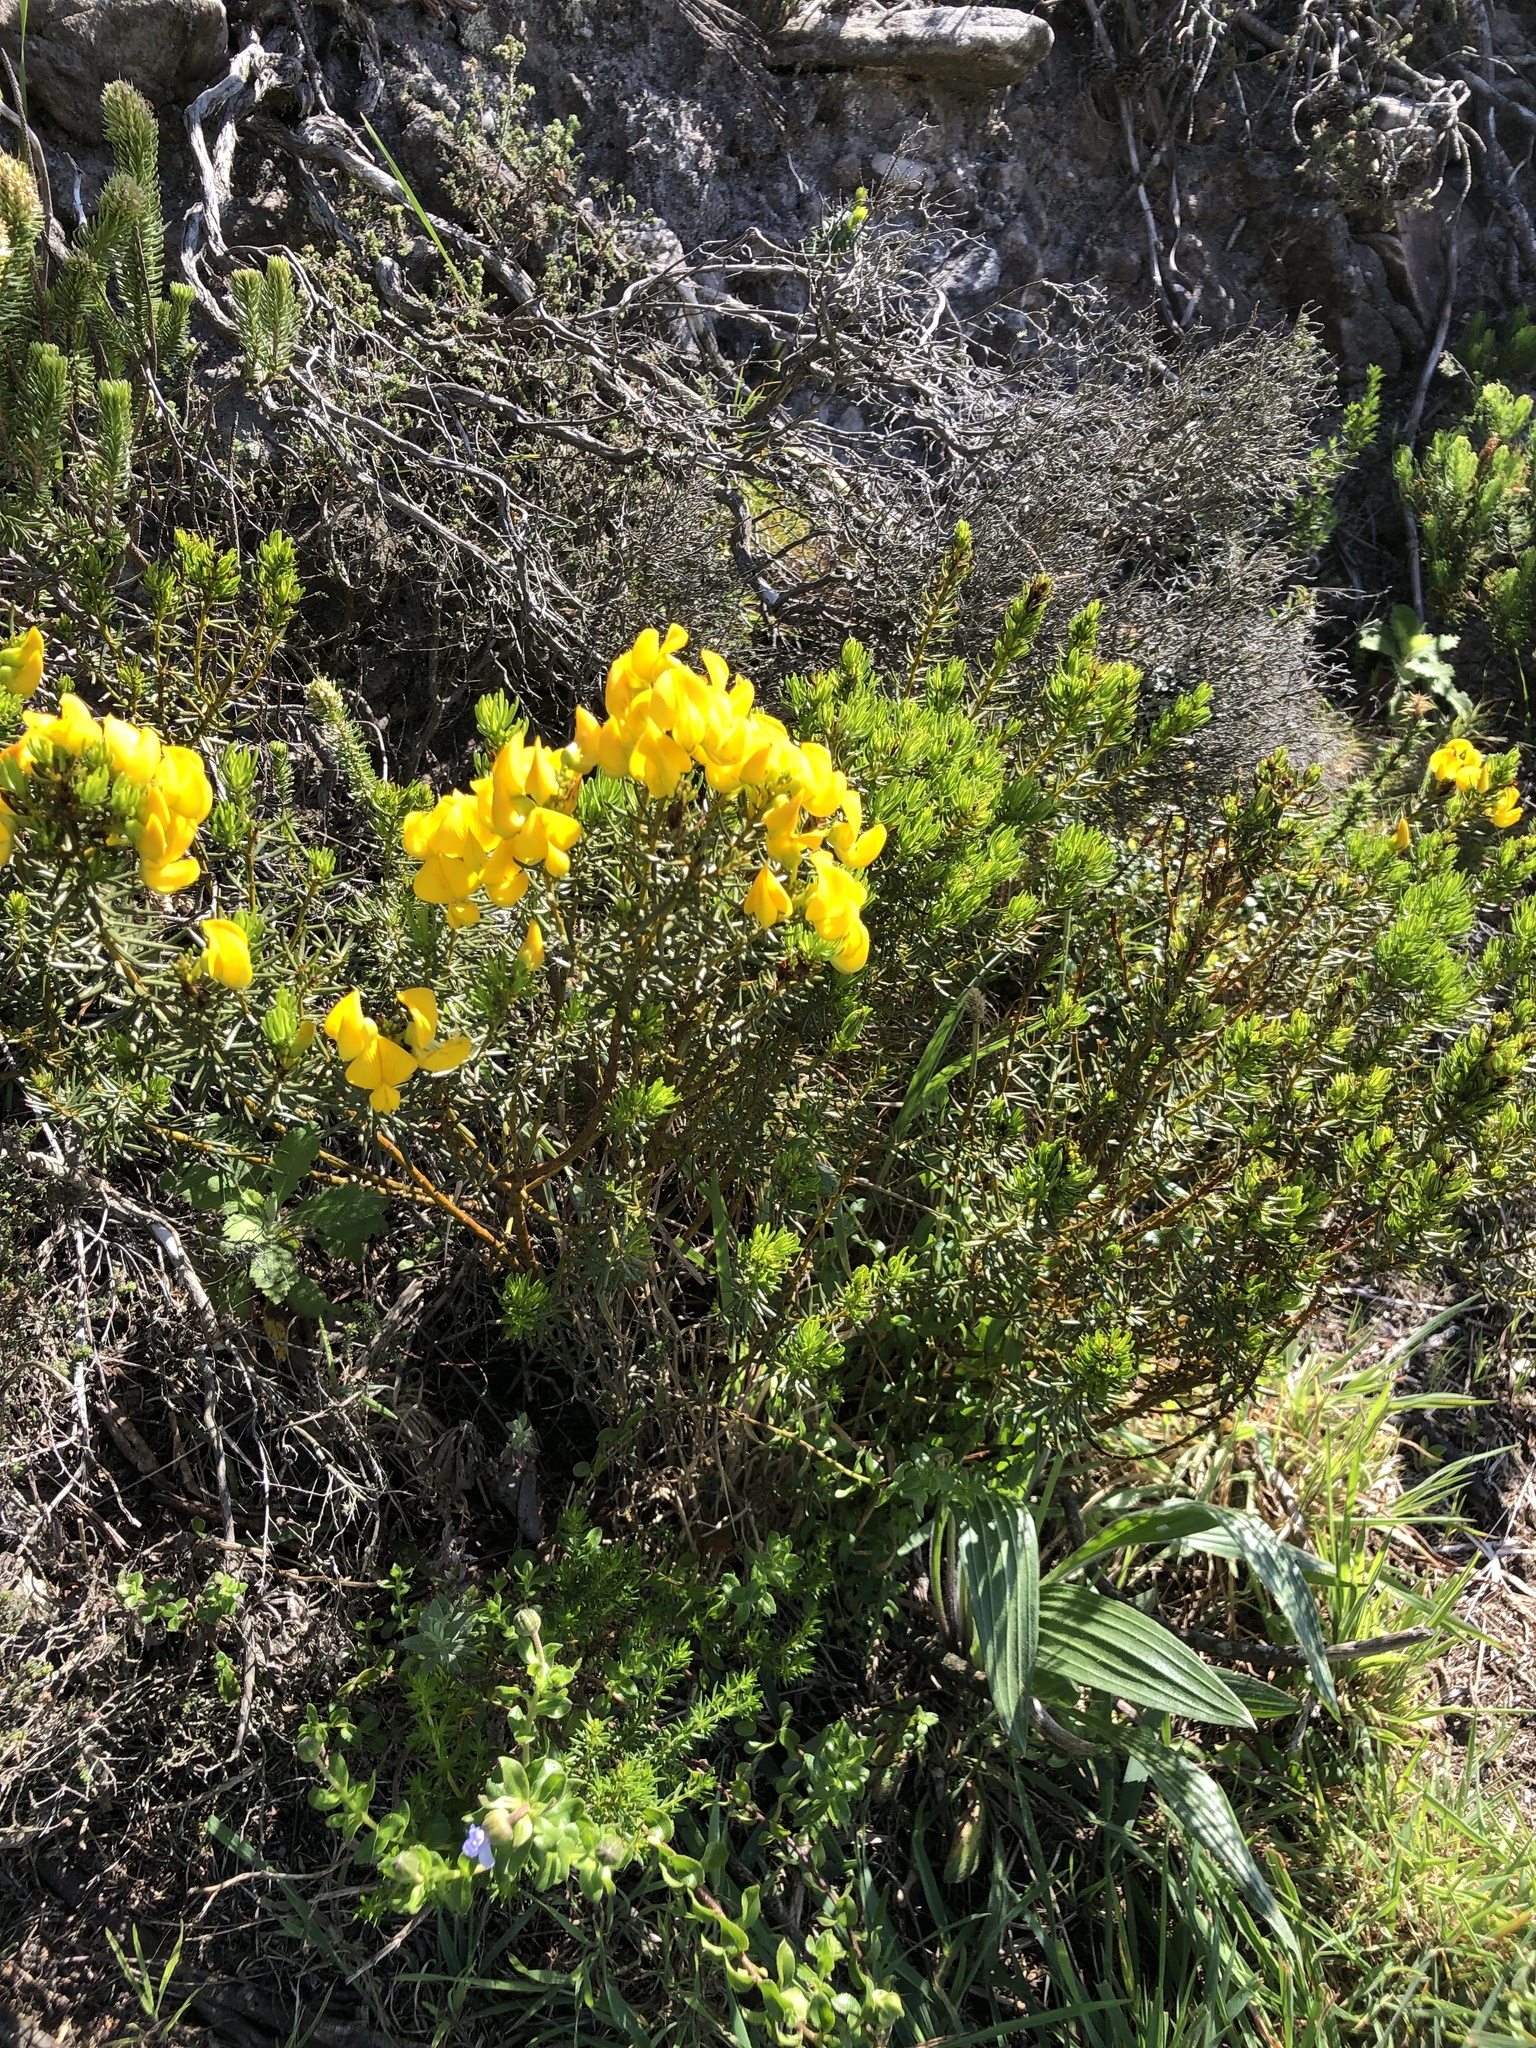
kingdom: Plantae
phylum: Tracheophyta
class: Magnoliopsida
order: Fabales
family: Fabaceae
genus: Cyclopia
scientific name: Cyclopia genistoides
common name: Honeybush tea
